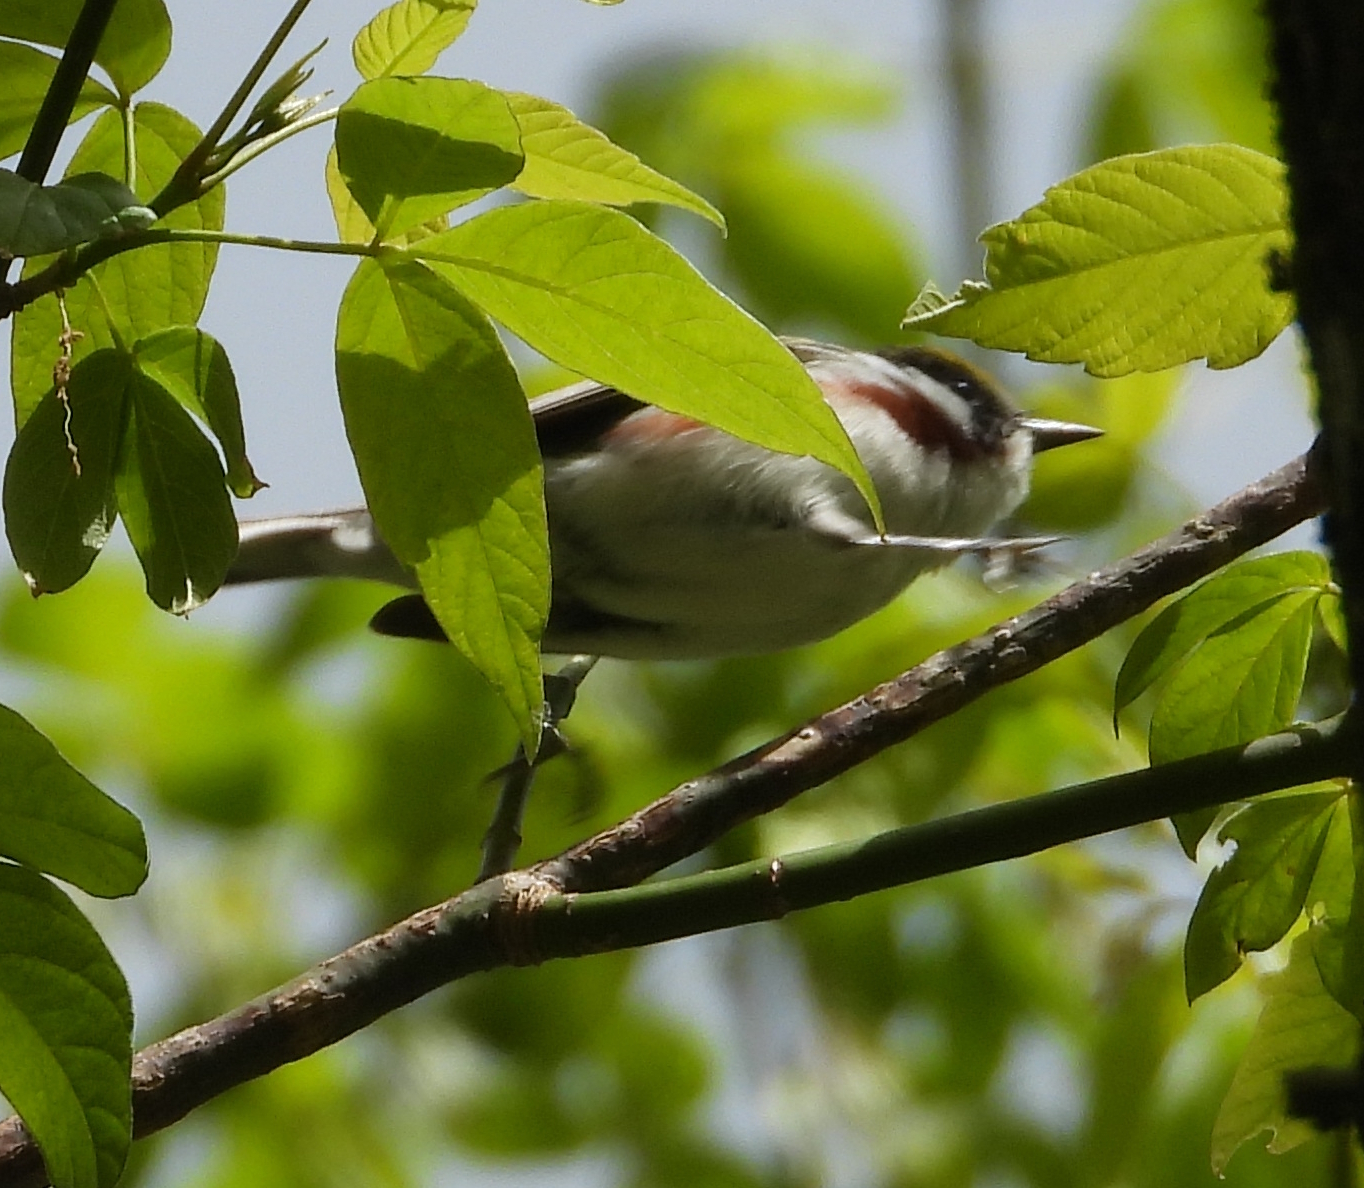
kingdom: Animalia
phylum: Chordata
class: Aves
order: Passeriformes
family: Parulidae
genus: Setophaga
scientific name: Setophaga pensylvanica
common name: Chestnut-sided warbler
